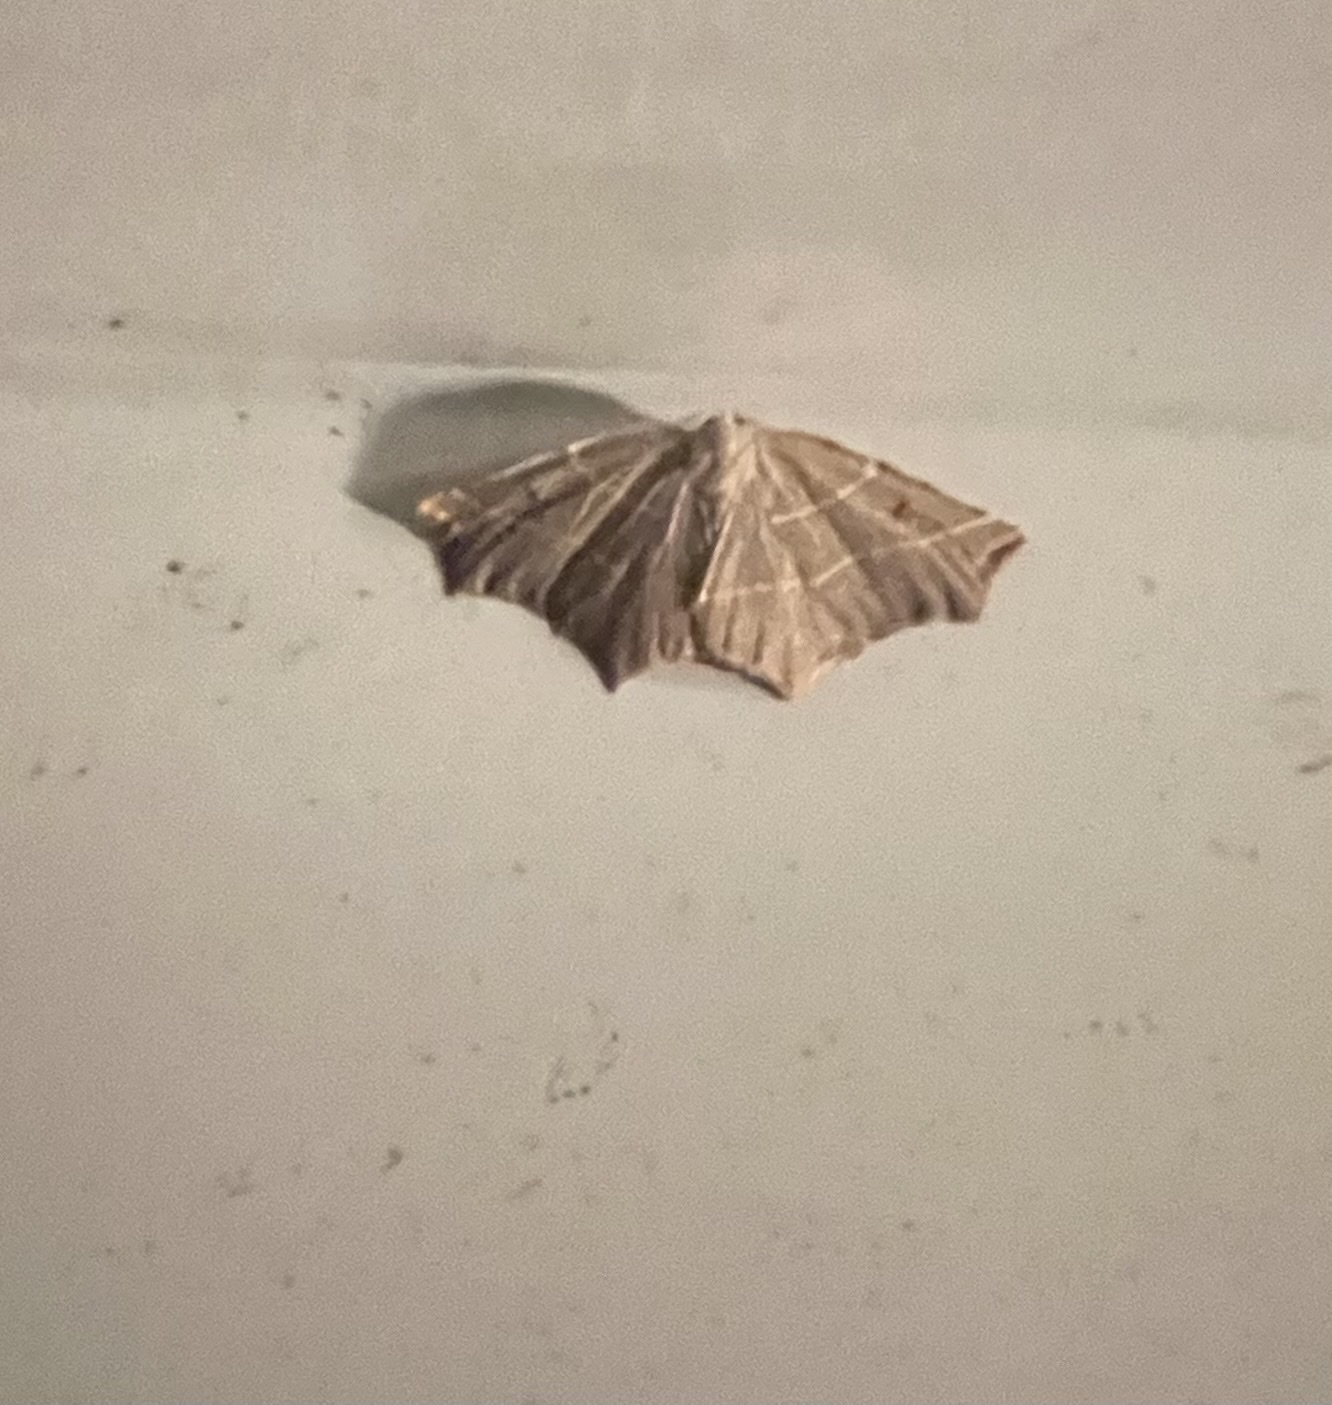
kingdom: Animalia
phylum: Arthropoda
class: Insecta
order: Lepidoptera
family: Geometridae
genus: Metanema
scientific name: Metanema inatomaria
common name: Pale metanema
